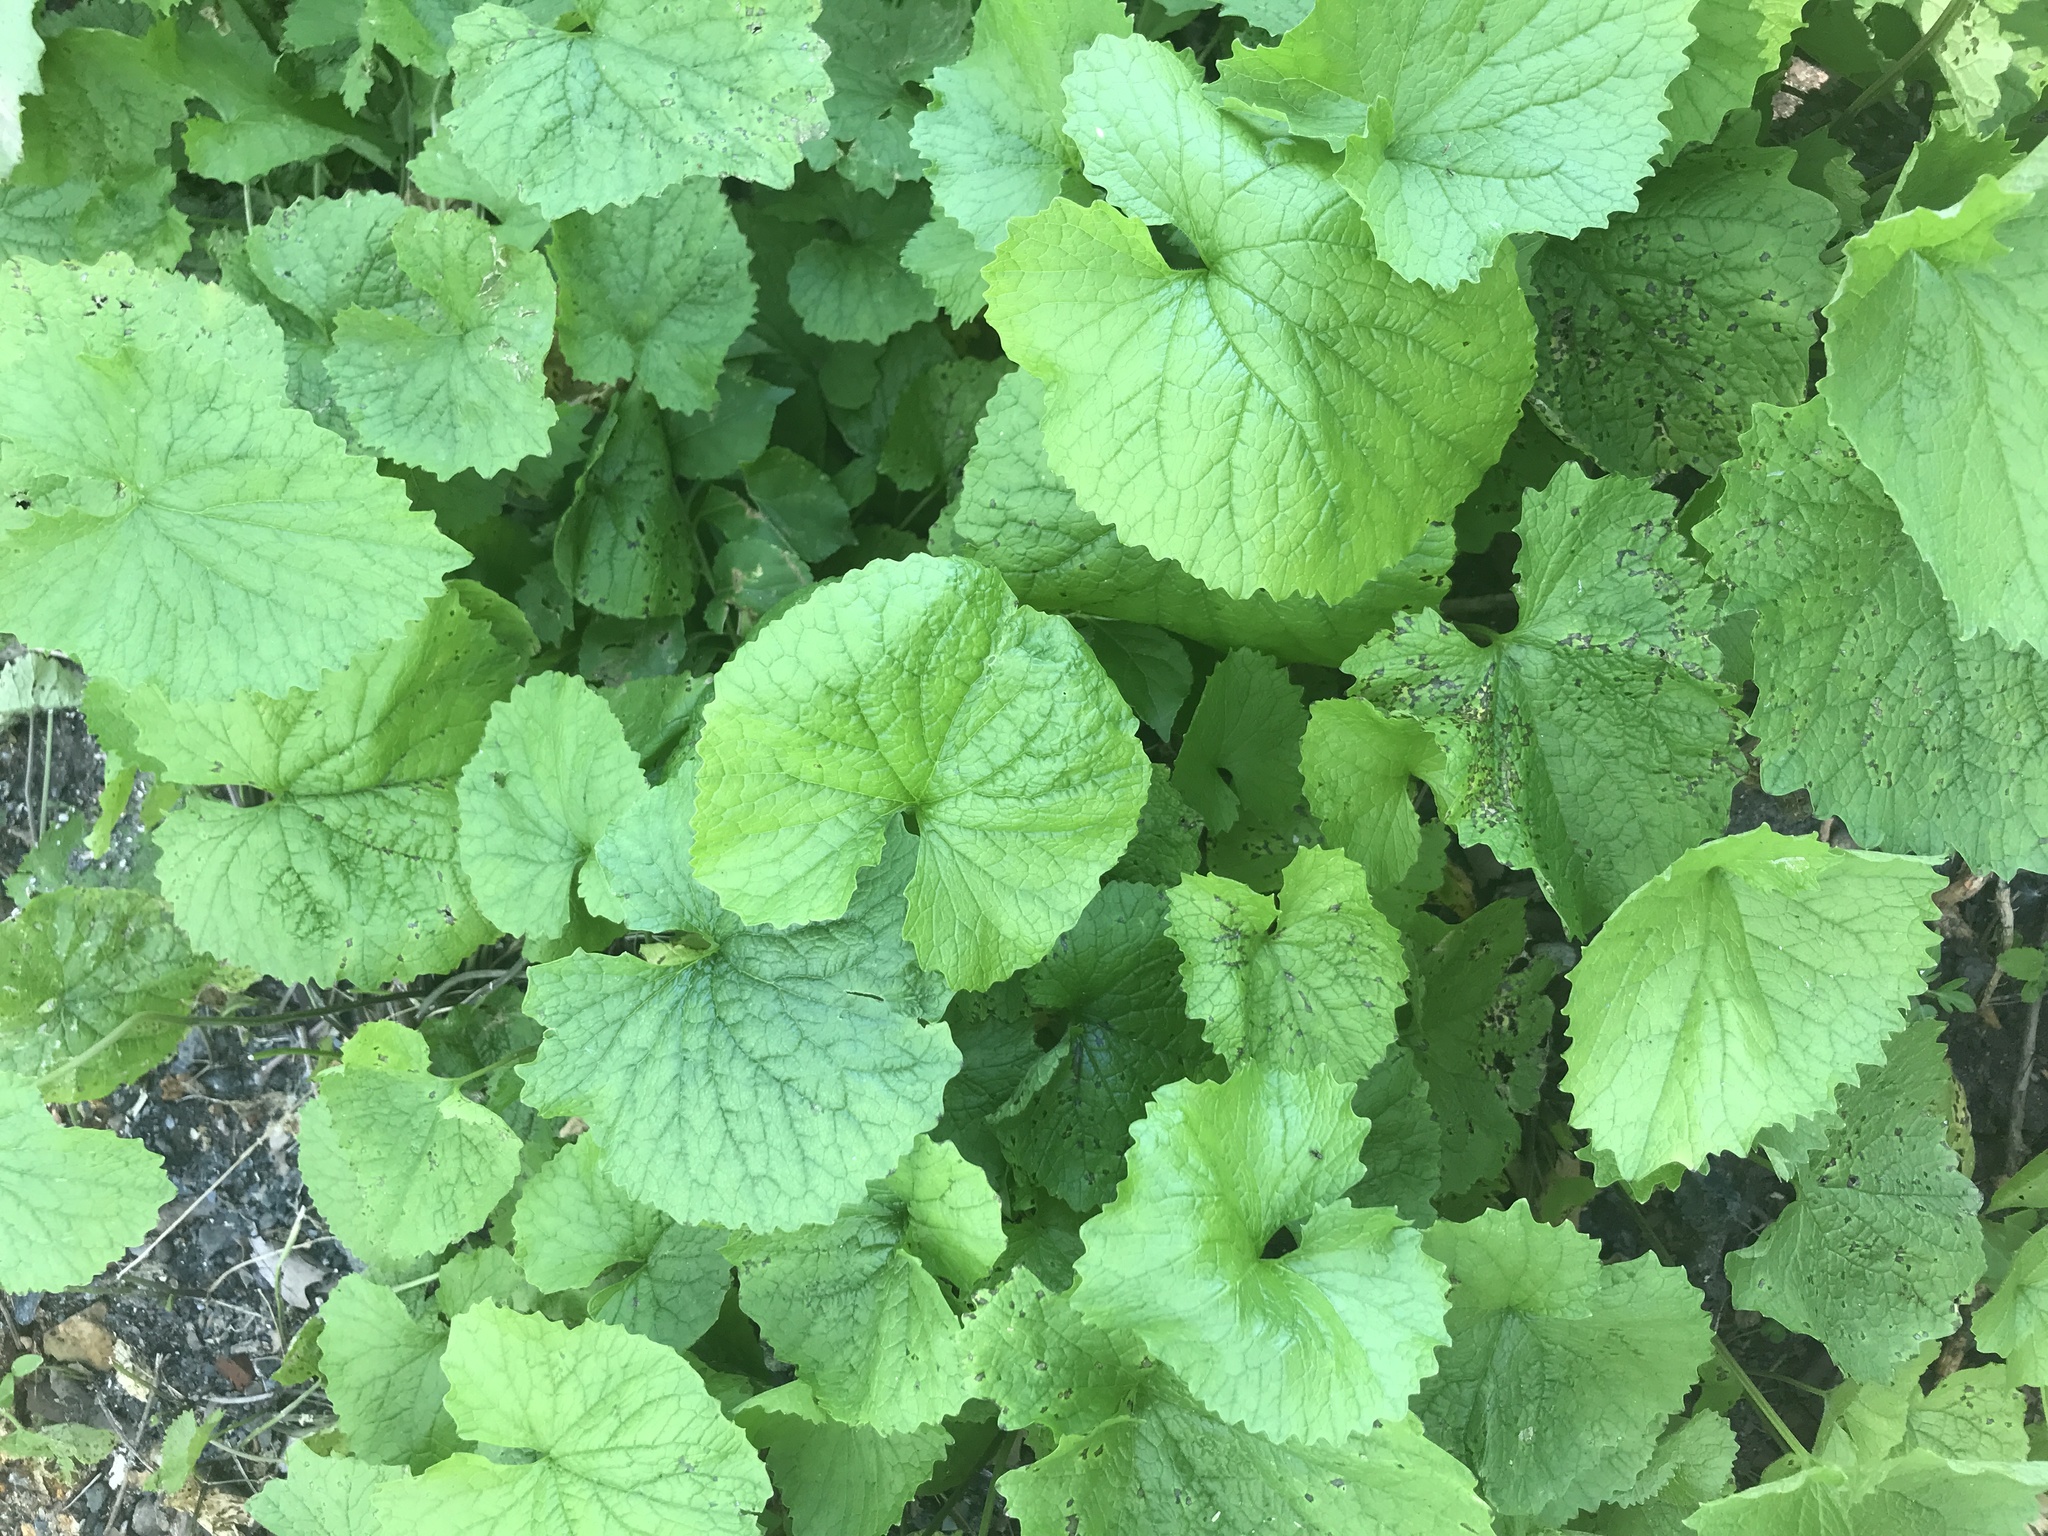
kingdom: Plantae
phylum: Tracheophyta
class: Magnoliopsida
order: Brassicales
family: Brassicaceae
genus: Alliaria
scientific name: Alliaria petiolata
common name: Garlic mustard
